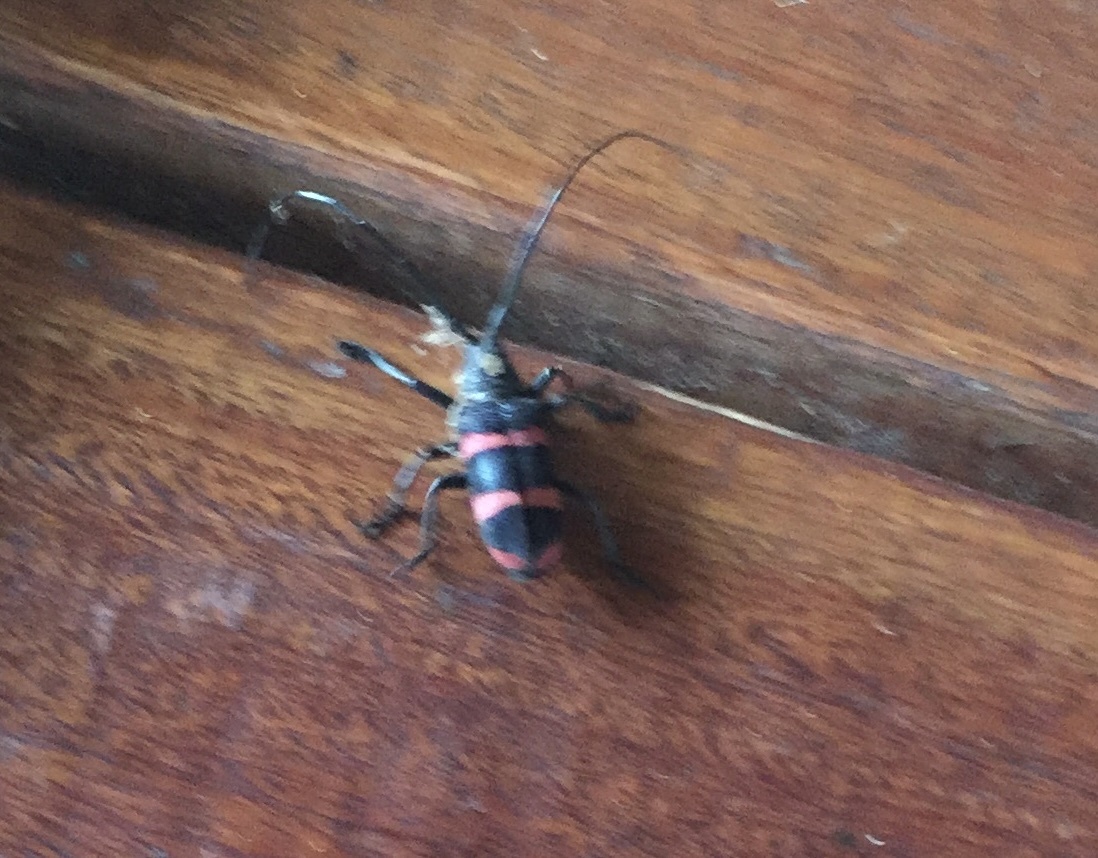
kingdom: Animalia
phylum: Arthropoda
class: Insecta
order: Coleoptera
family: Cerambycidae
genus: Ceroplesis
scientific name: Ceroplesis orientalis
